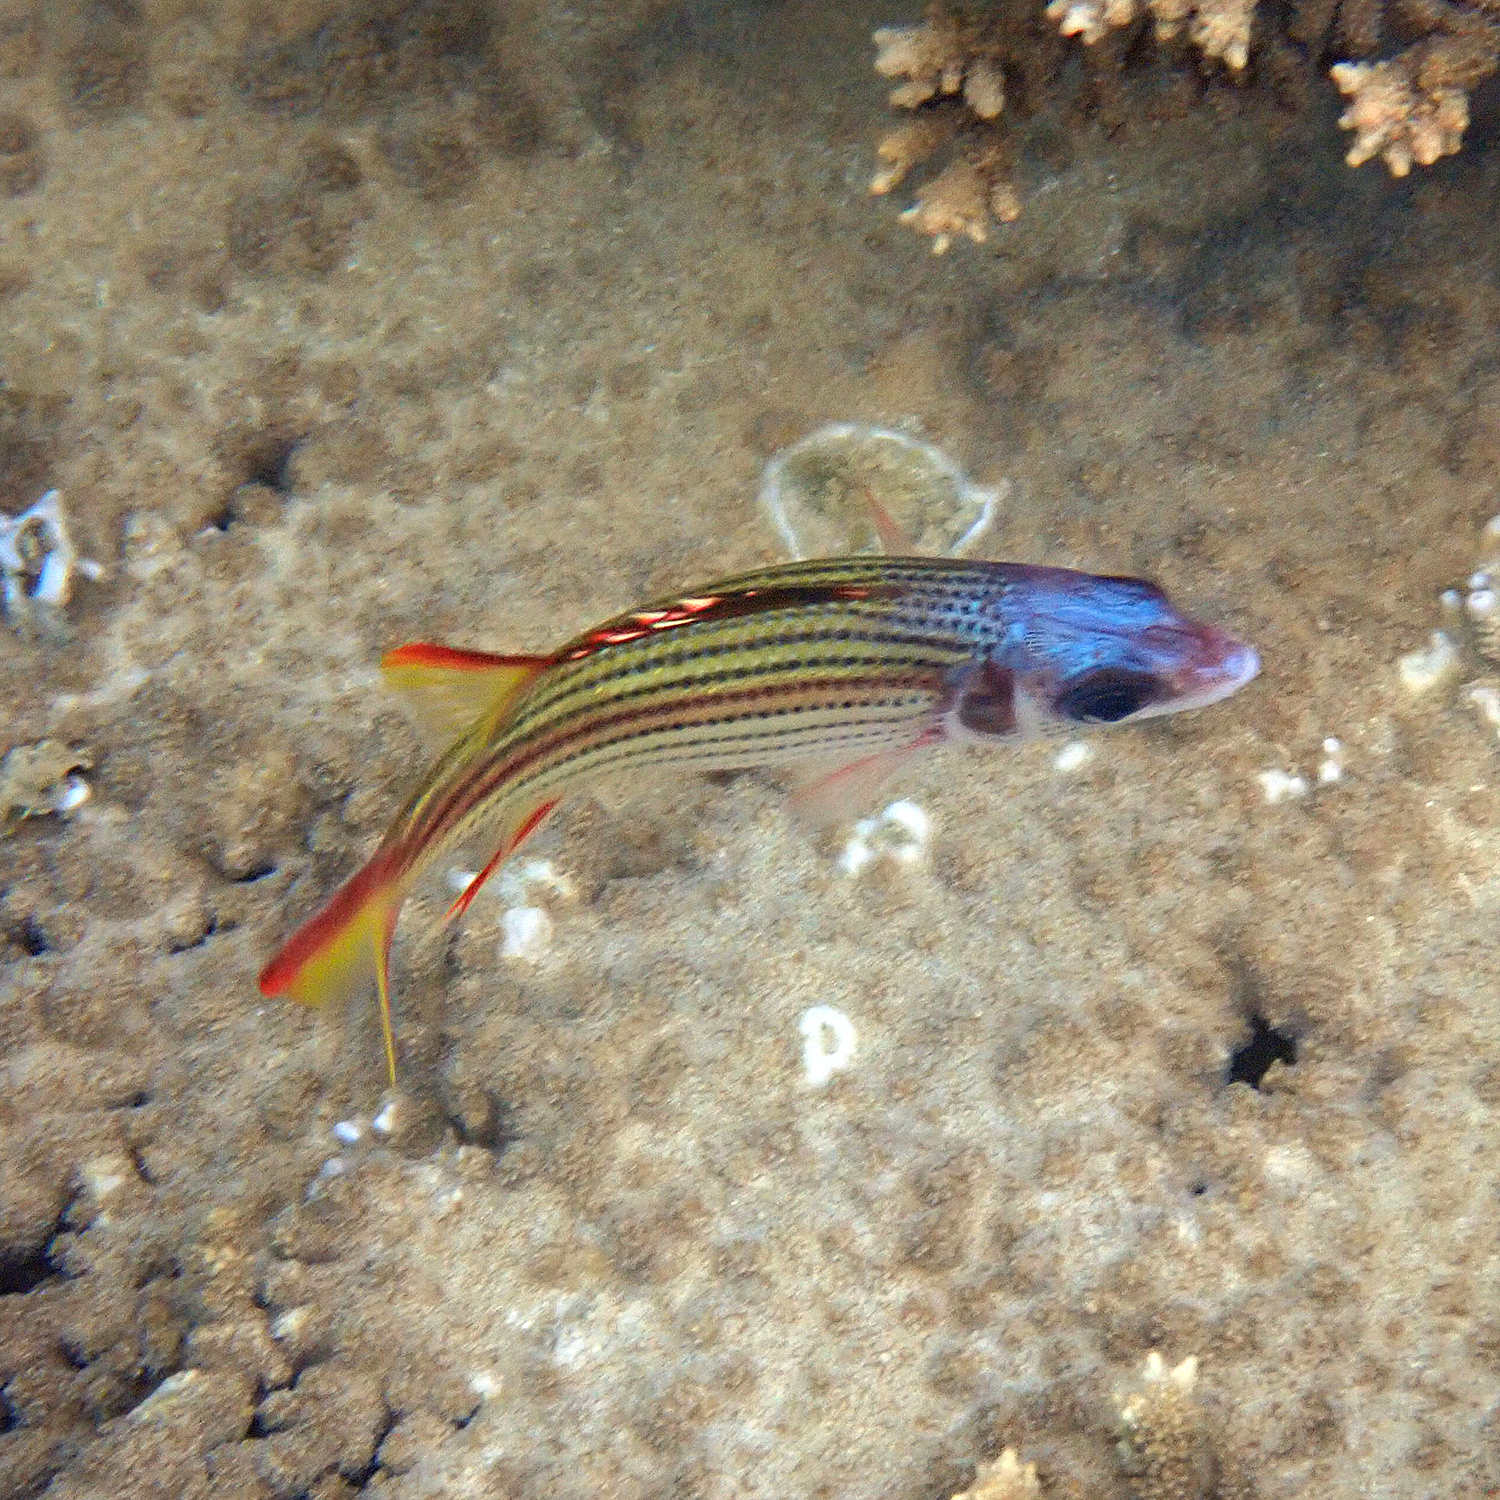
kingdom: Animalia
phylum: Chordata
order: Beryciformes
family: Holocentridae
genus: Neoniphon
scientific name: Neoniphon sammara
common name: Sammara squirrelfish
